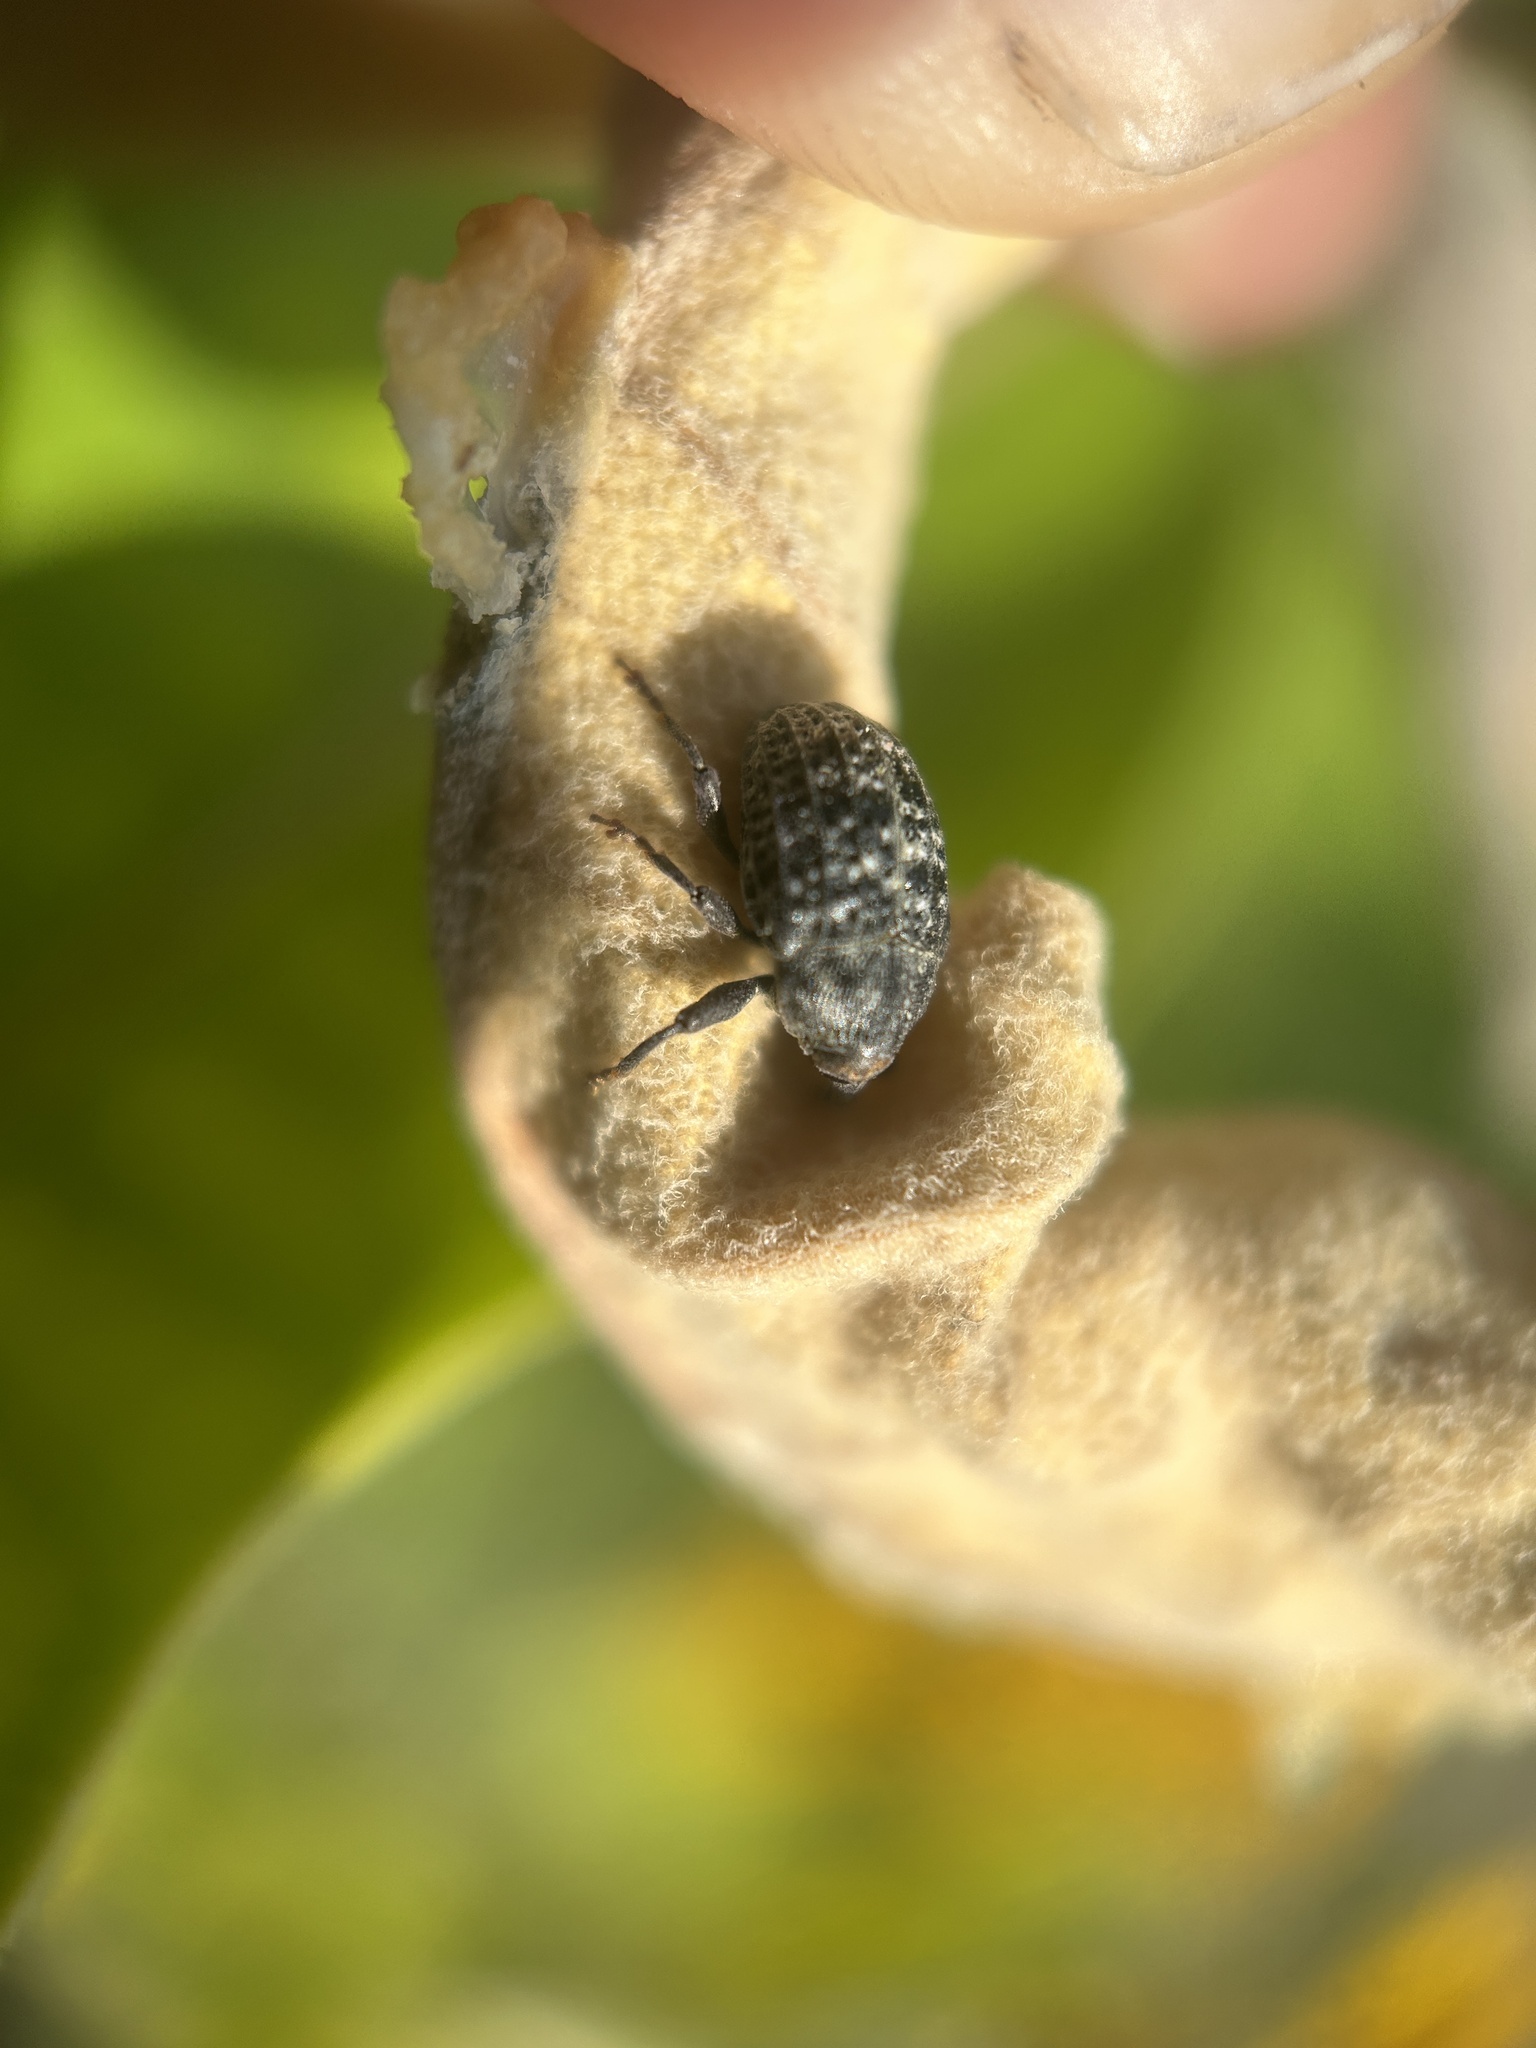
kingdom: Animalia
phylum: Arthropoda
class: Insecta
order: Coleoptera
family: Curculionidae
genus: Rhyssomatus
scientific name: Rhyssomatus lineaticollis
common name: Milkweed stem weevil
